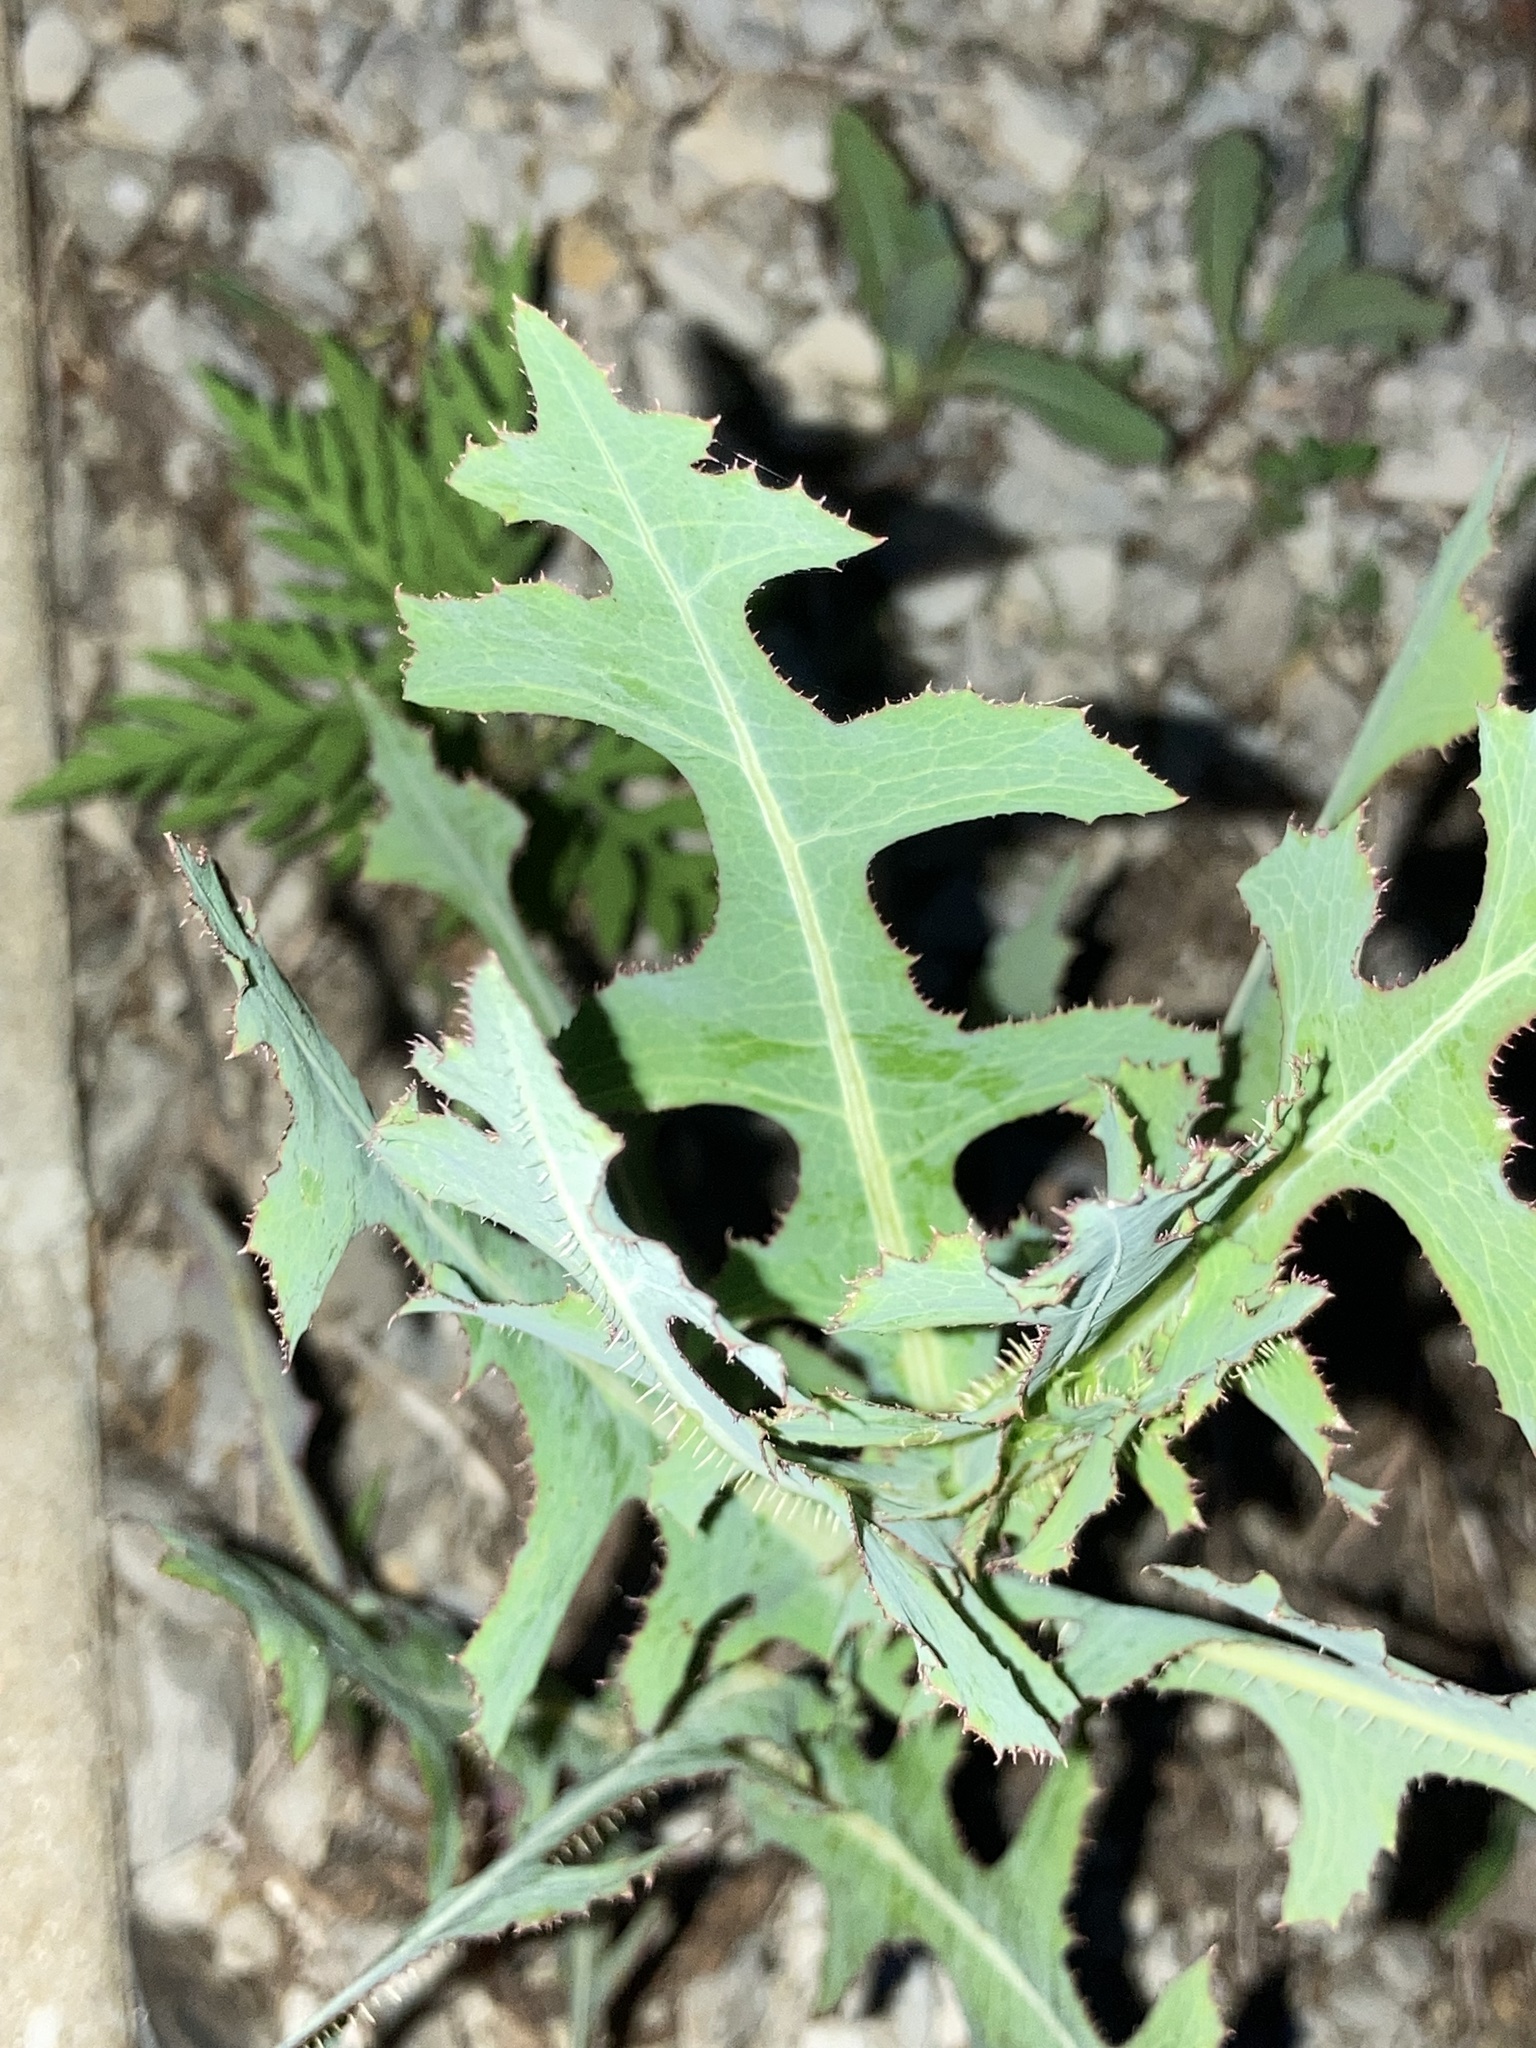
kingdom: Plantae
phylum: Tracheophyta
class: Magnoliopsida
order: Asterales
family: Asteraceae
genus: Lactuca
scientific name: Lactuca serriola
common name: Prickly lettuce
